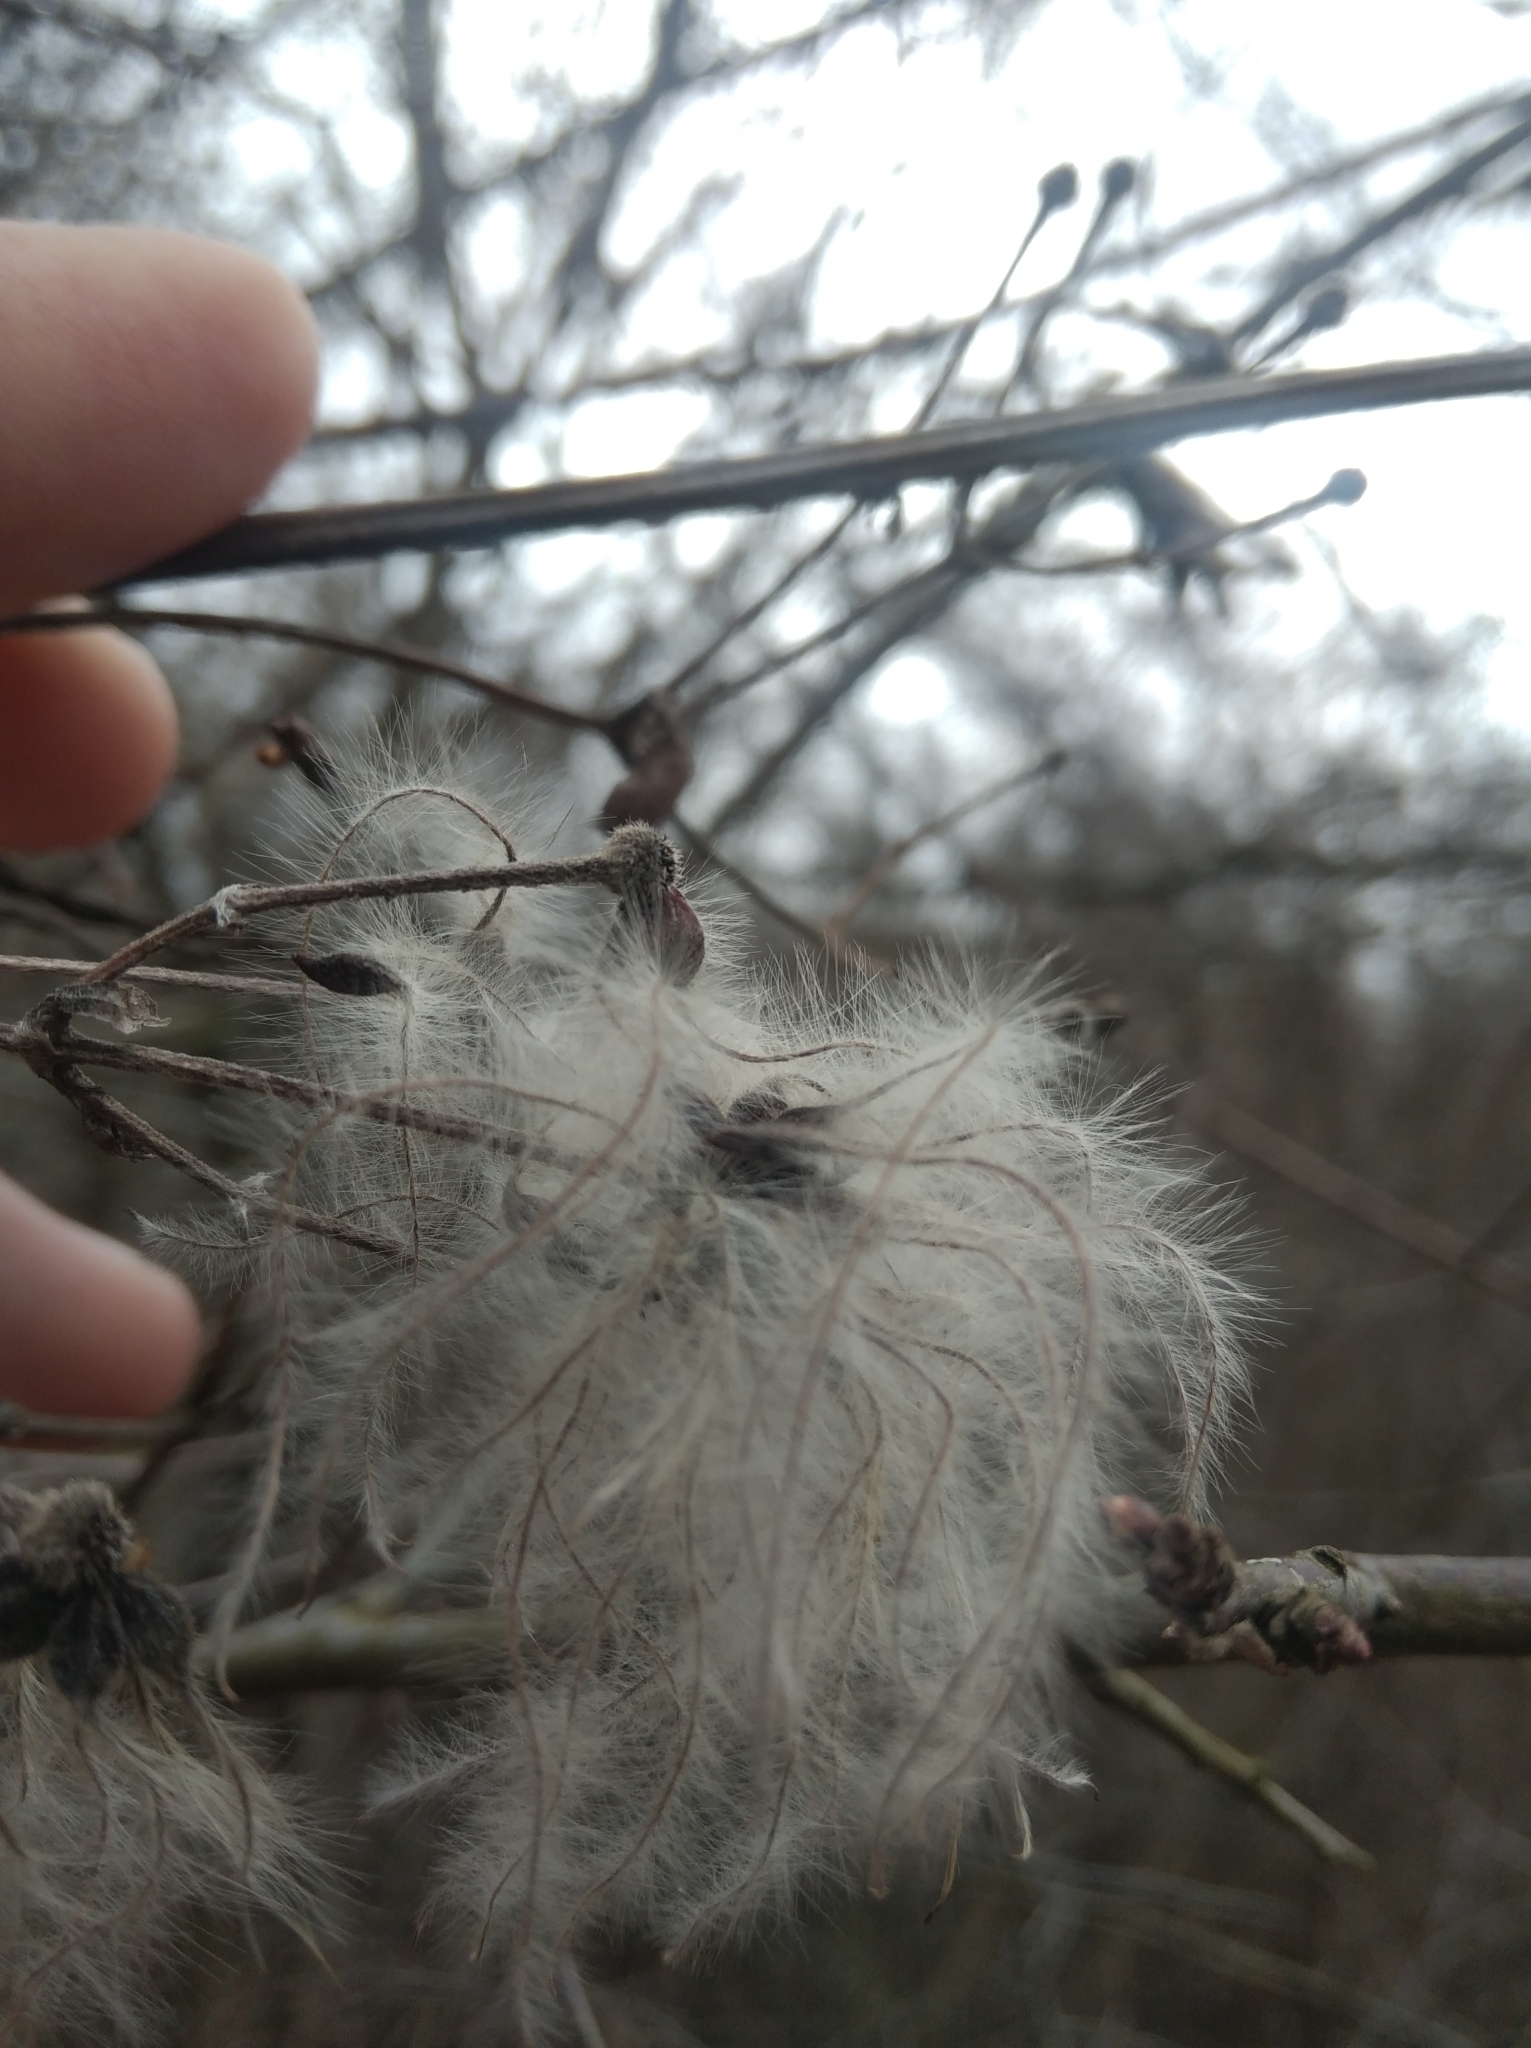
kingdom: Plantae
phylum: Tracheophyta
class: Magnoliopsida
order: Ranunculales
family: Ranunculaceae
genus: Clematis
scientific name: Clematis vitalba
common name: Evergreen clematis
